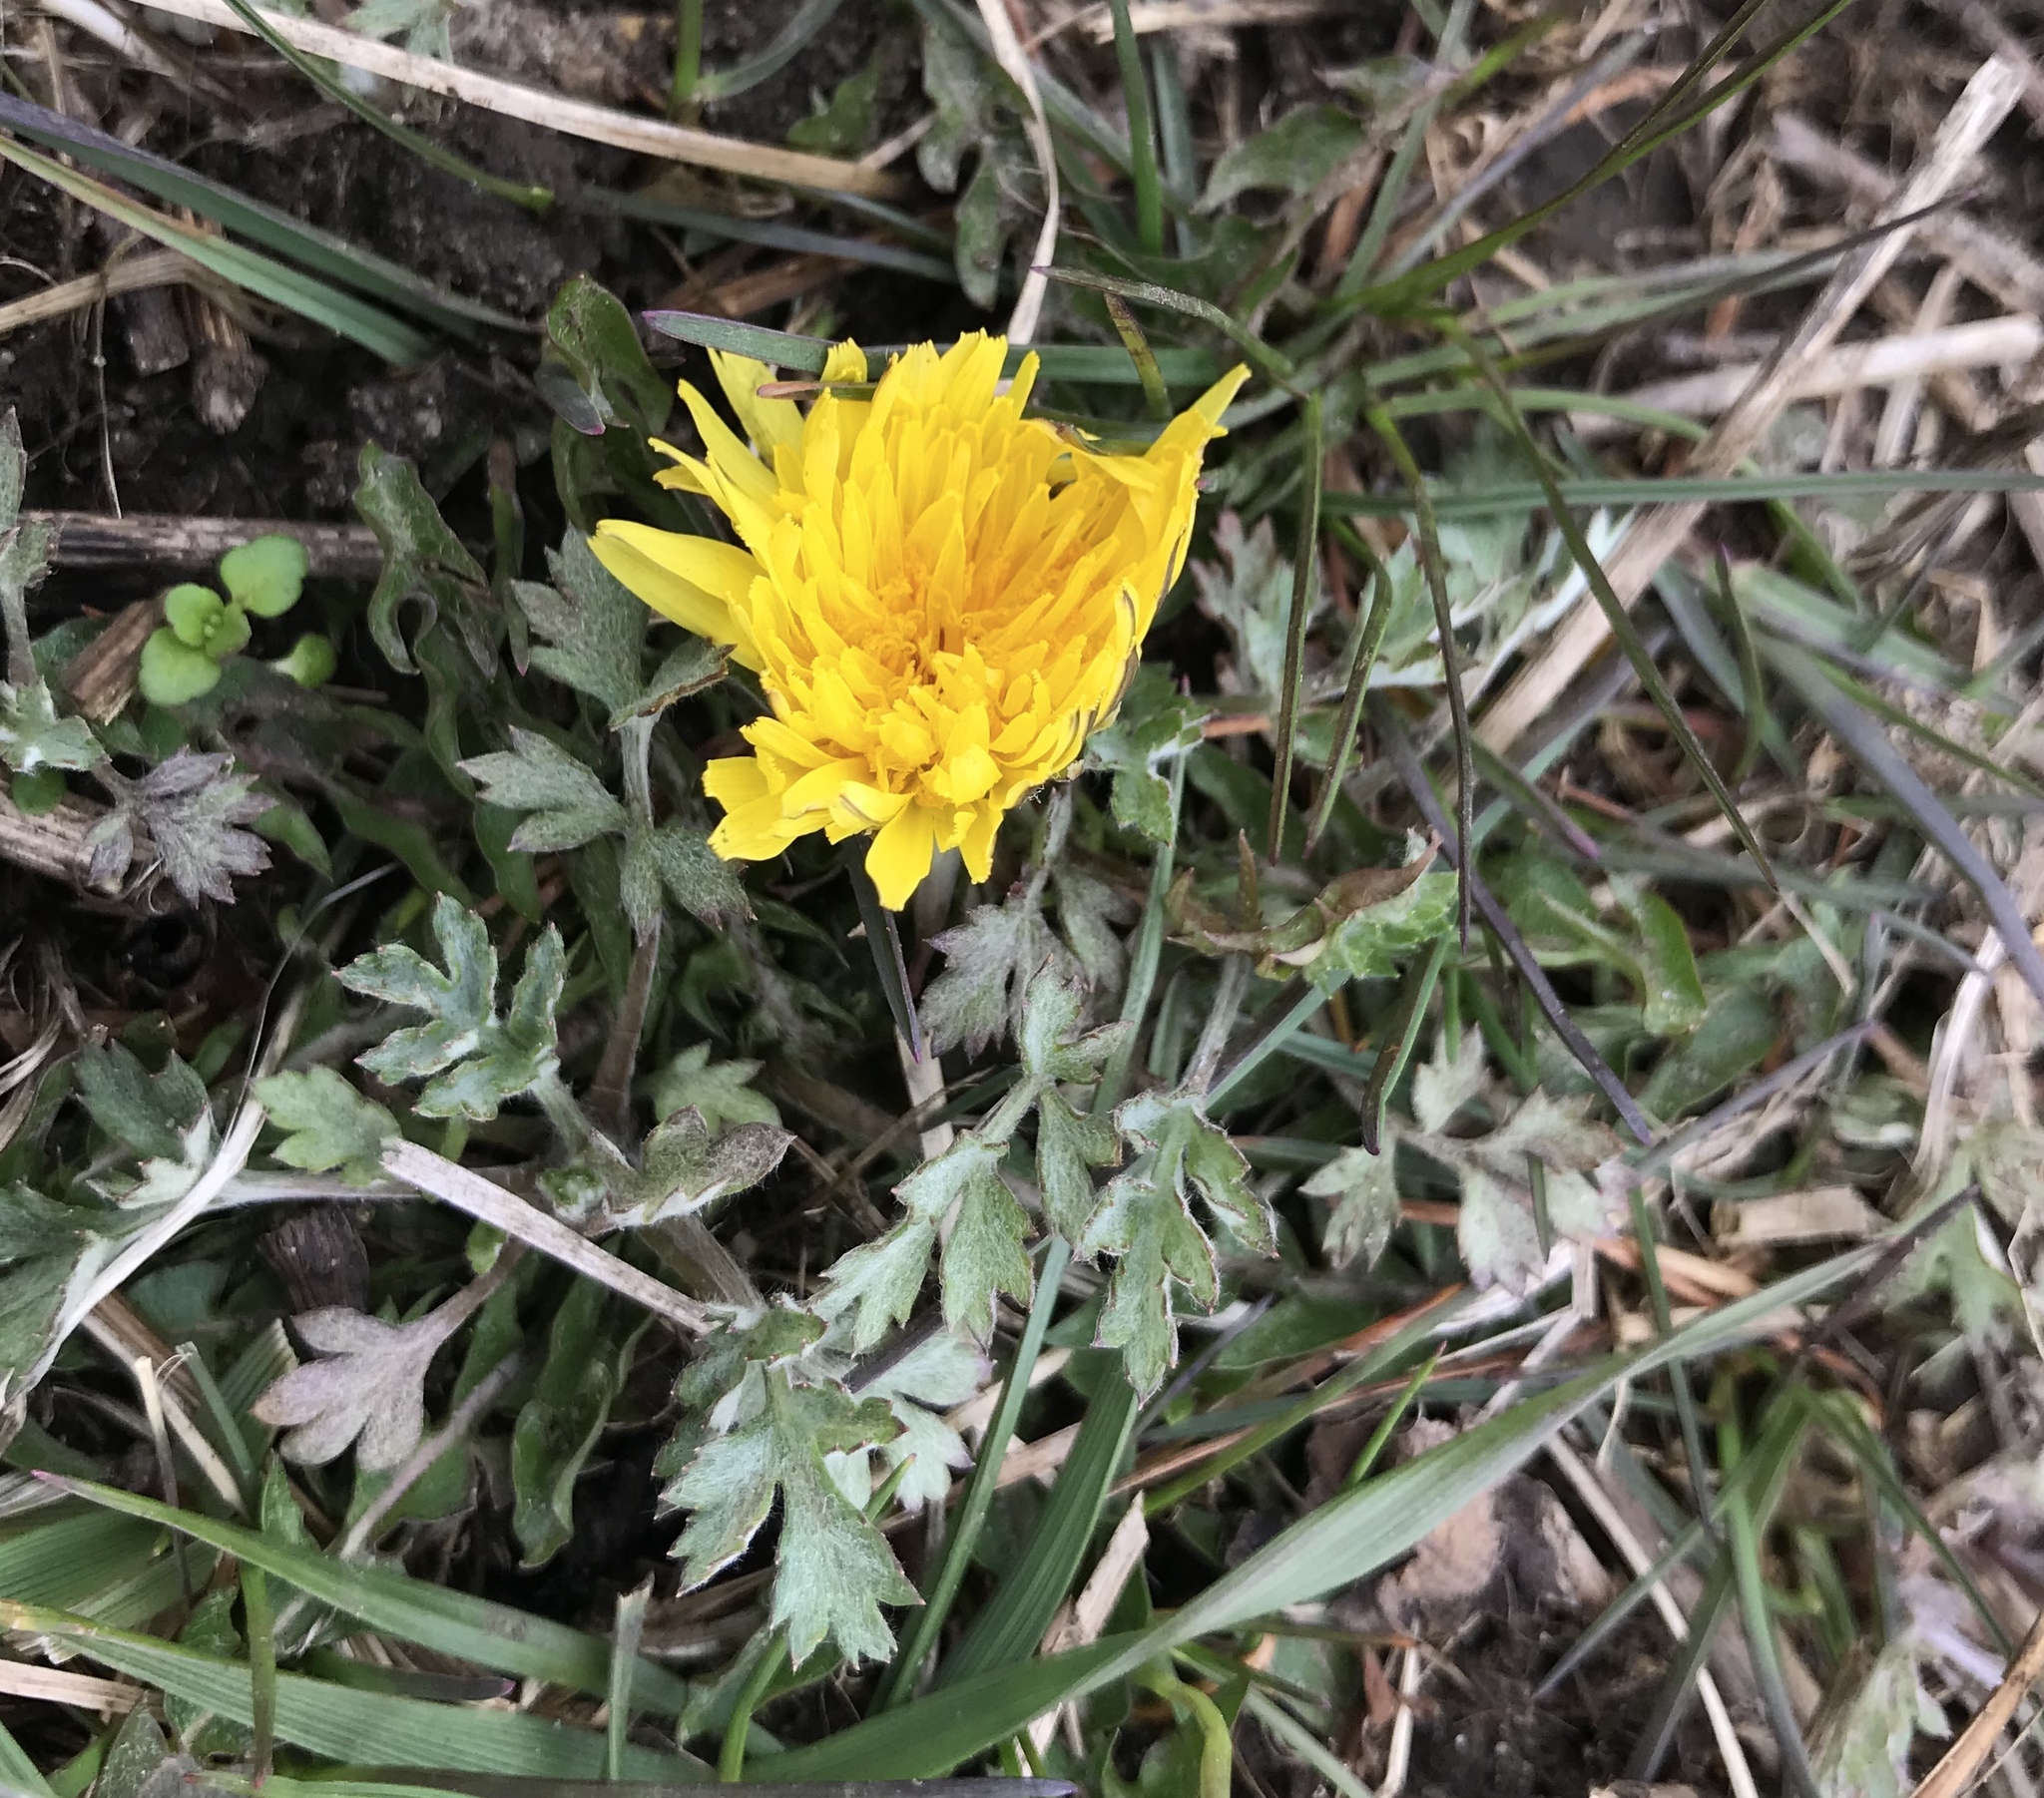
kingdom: Plantae
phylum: Tracheophyta
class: Magnoliopsida
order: Asterales
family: Asteraceae
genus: Taraxacum
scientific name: Taraxacum officinale
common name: Common dandelion
